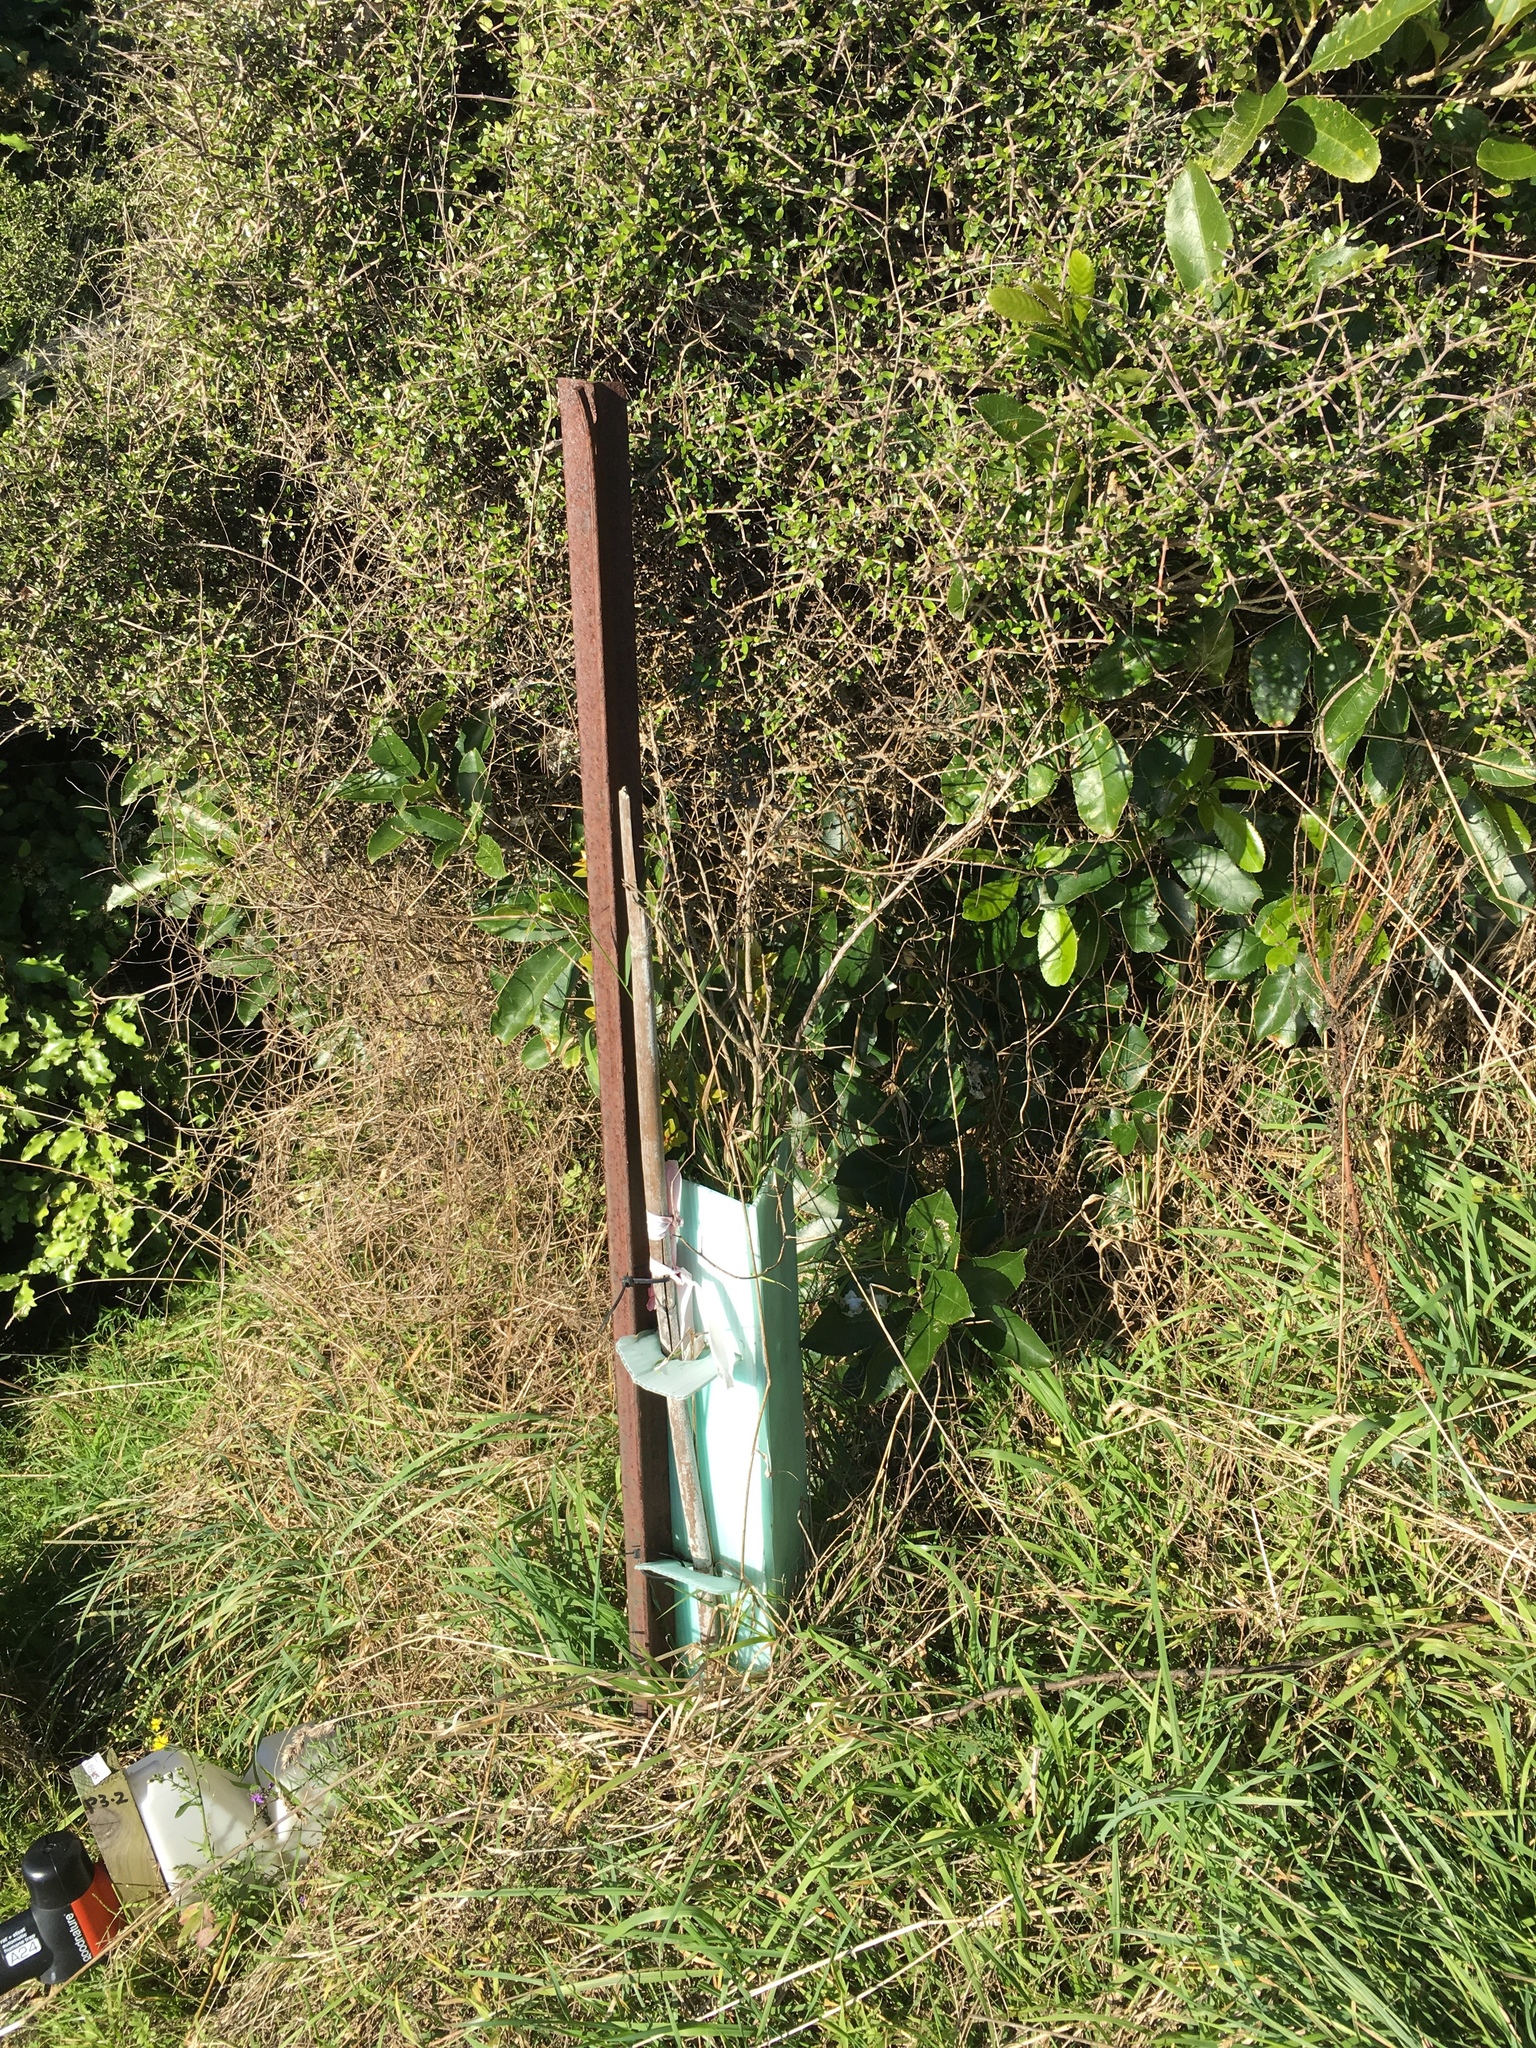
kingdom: Plantae
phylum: Tracheophyta
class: Magnoliopsida
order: Myrtales
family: Myrtaceae
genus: Metrosideros
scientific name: Metrosideros robusta
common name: Northern rata
